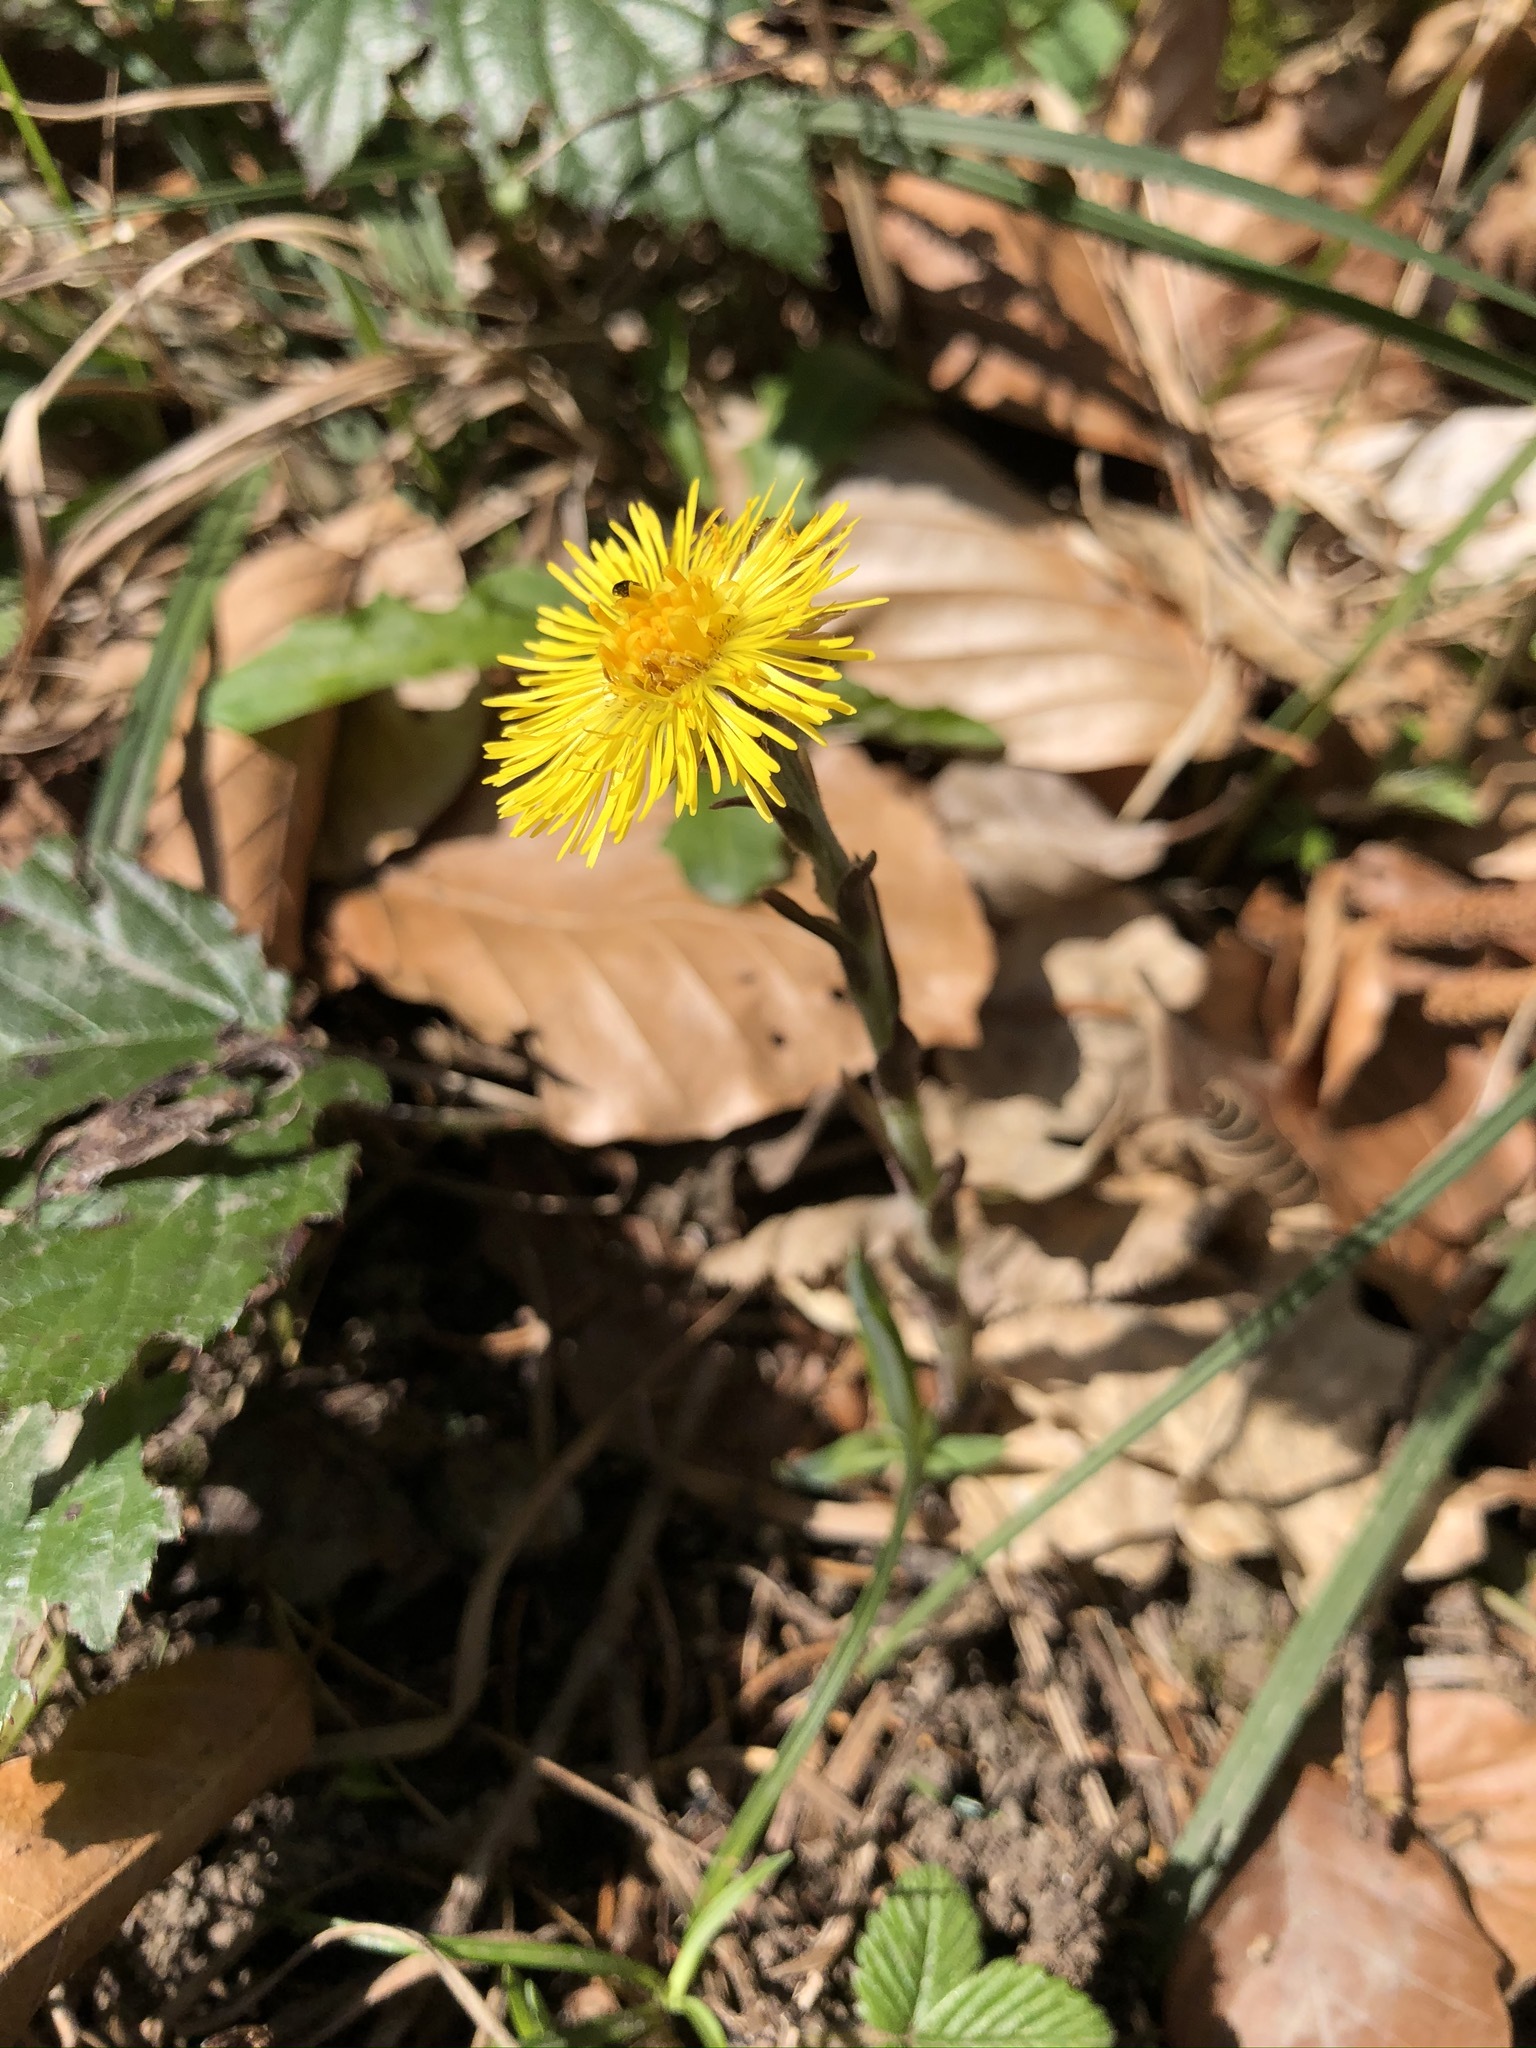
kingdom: Plantae
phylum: Tracheophyta
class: Magnoliopsida
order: Asterales
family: Asteraceae
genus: Tussilago
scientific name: Tussilago farfara
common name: Coltsfoot
